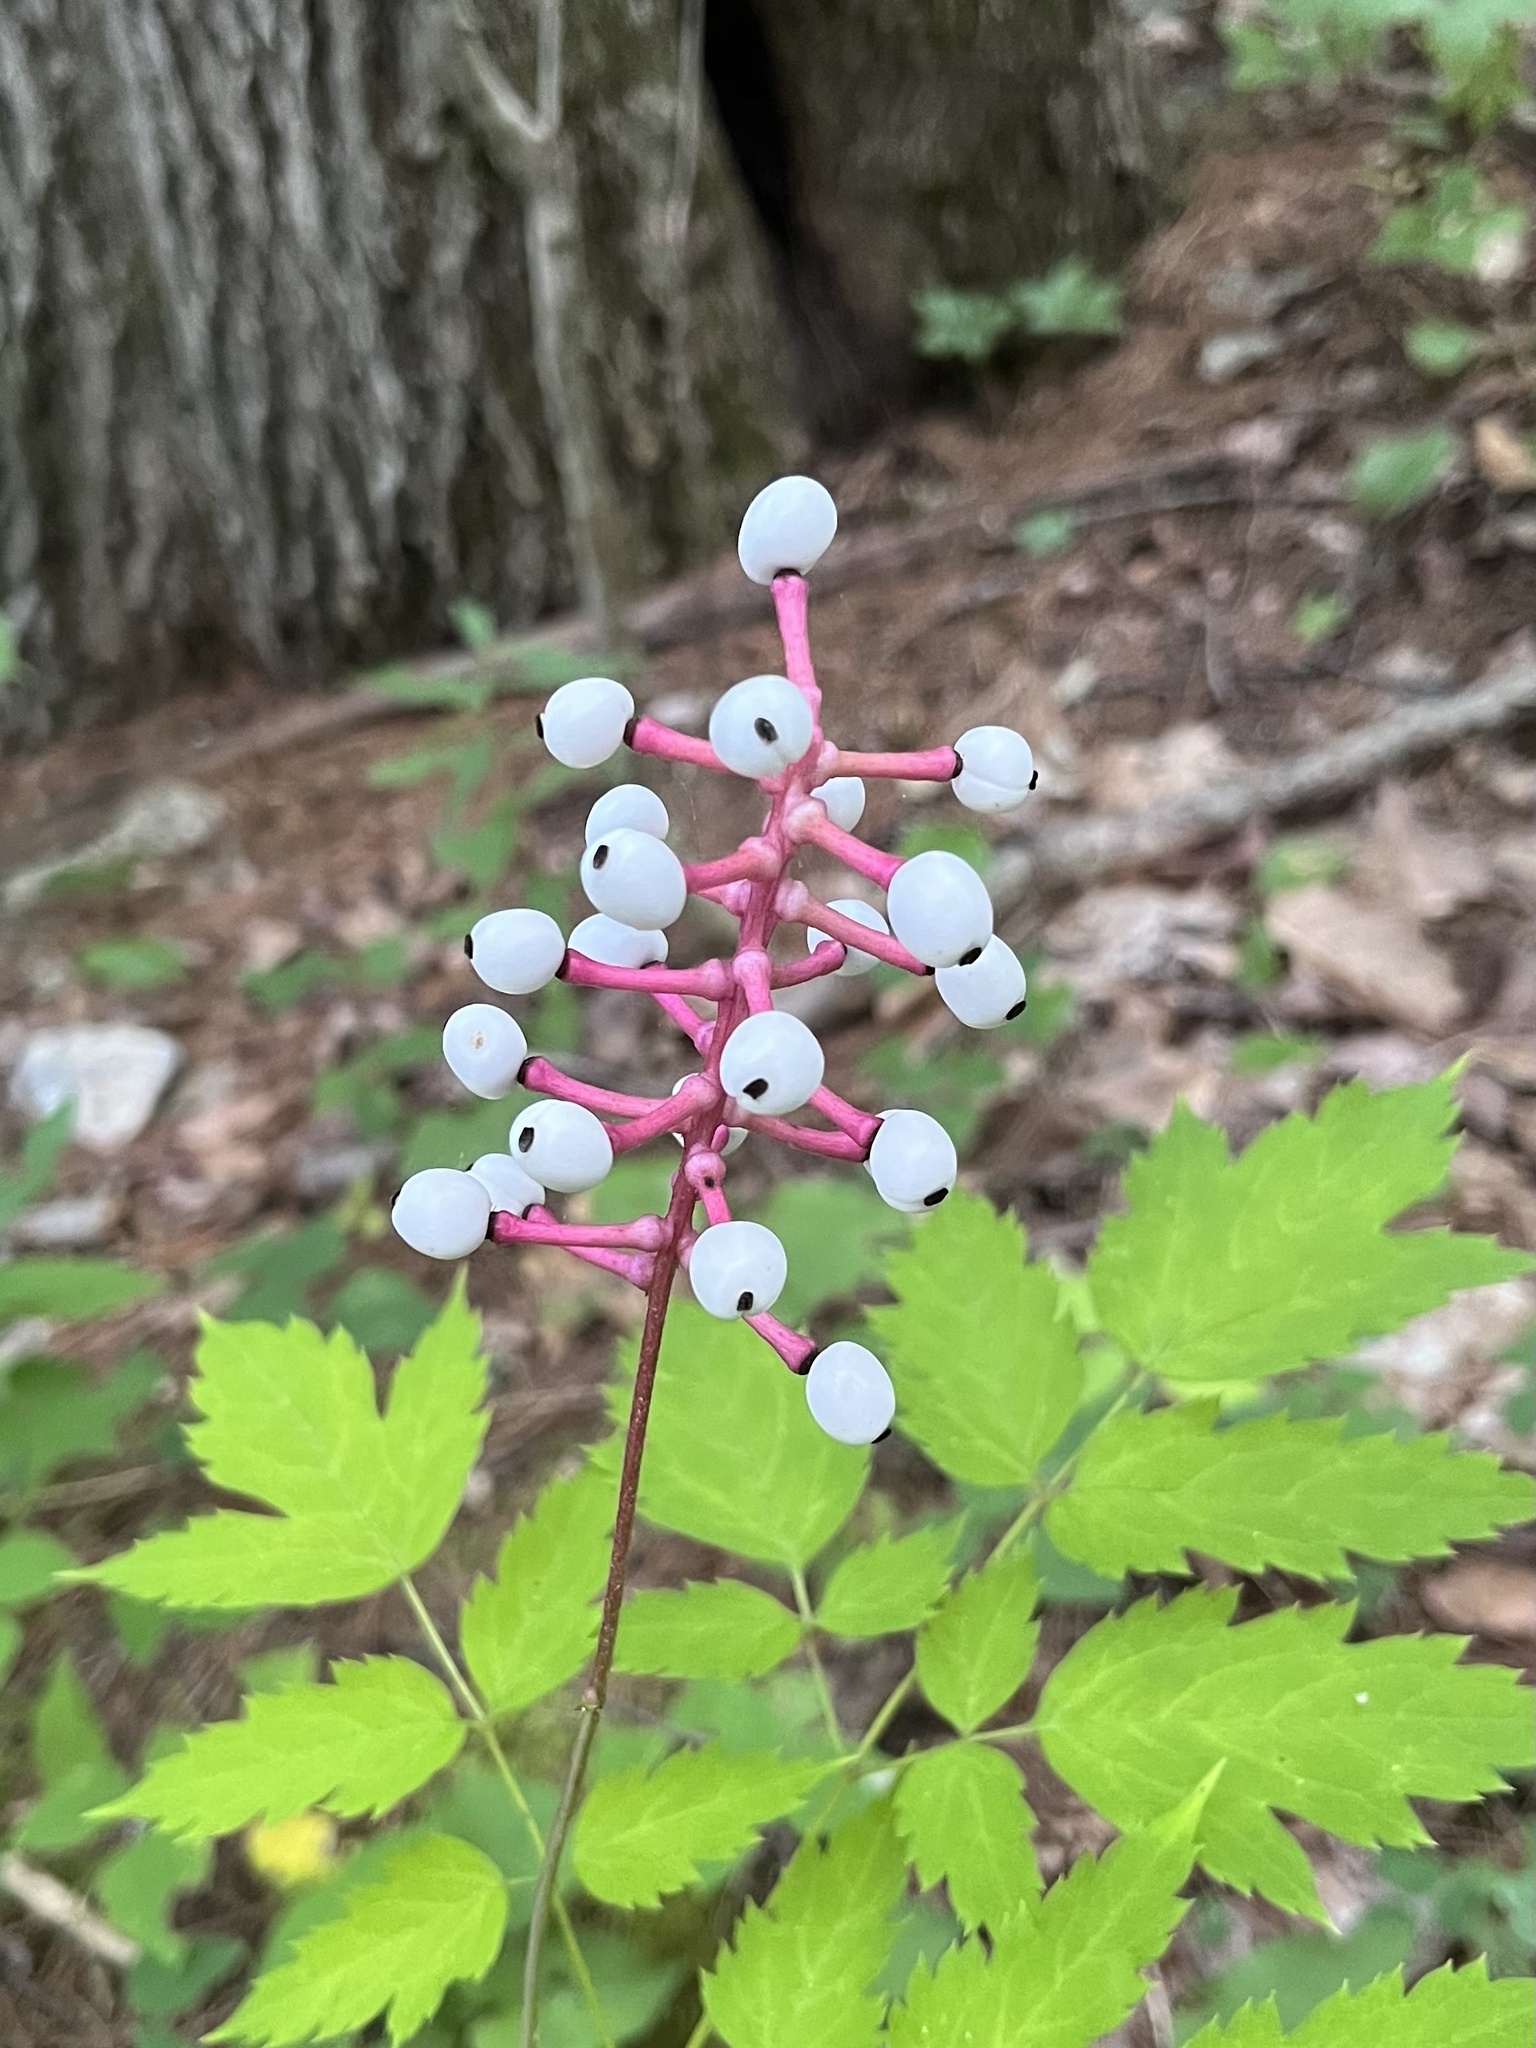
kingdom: Plantae
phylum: Tracheophyta
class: Magnoliopsida
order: Ranunculales
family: Ranunculaceae
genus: Actaea
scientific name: Actaea pachypoda
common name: Doll's-eyes
